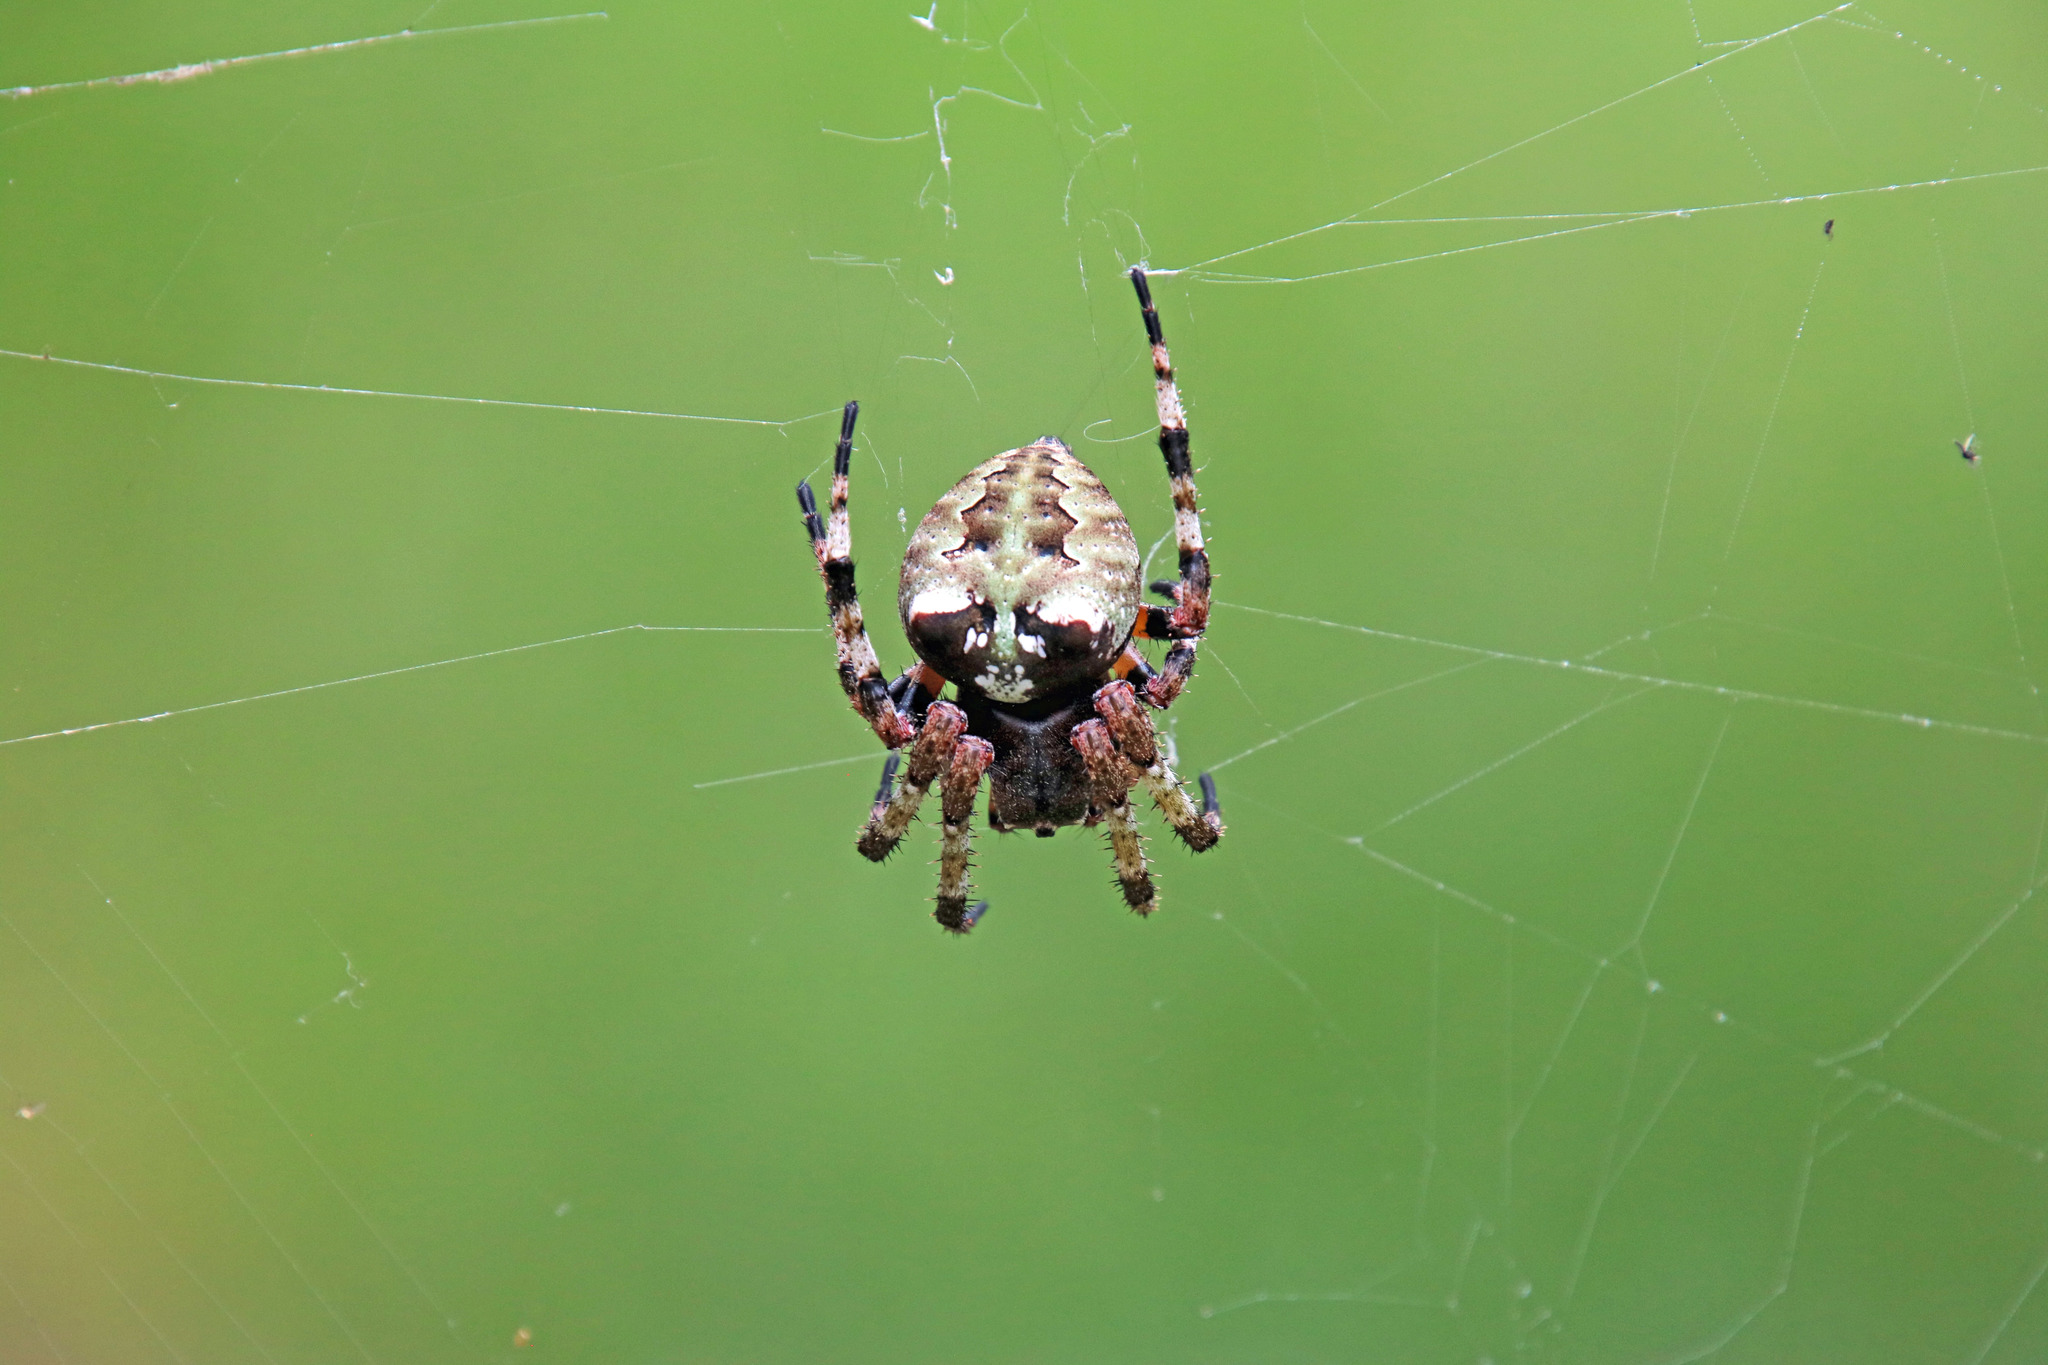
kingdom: Animalia
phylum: Arthropoda
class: Arachnida
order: Araneae
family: Araneidae
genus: Araneus
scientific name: Araneus bicentenarius
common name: Giant lichen orbweaver
